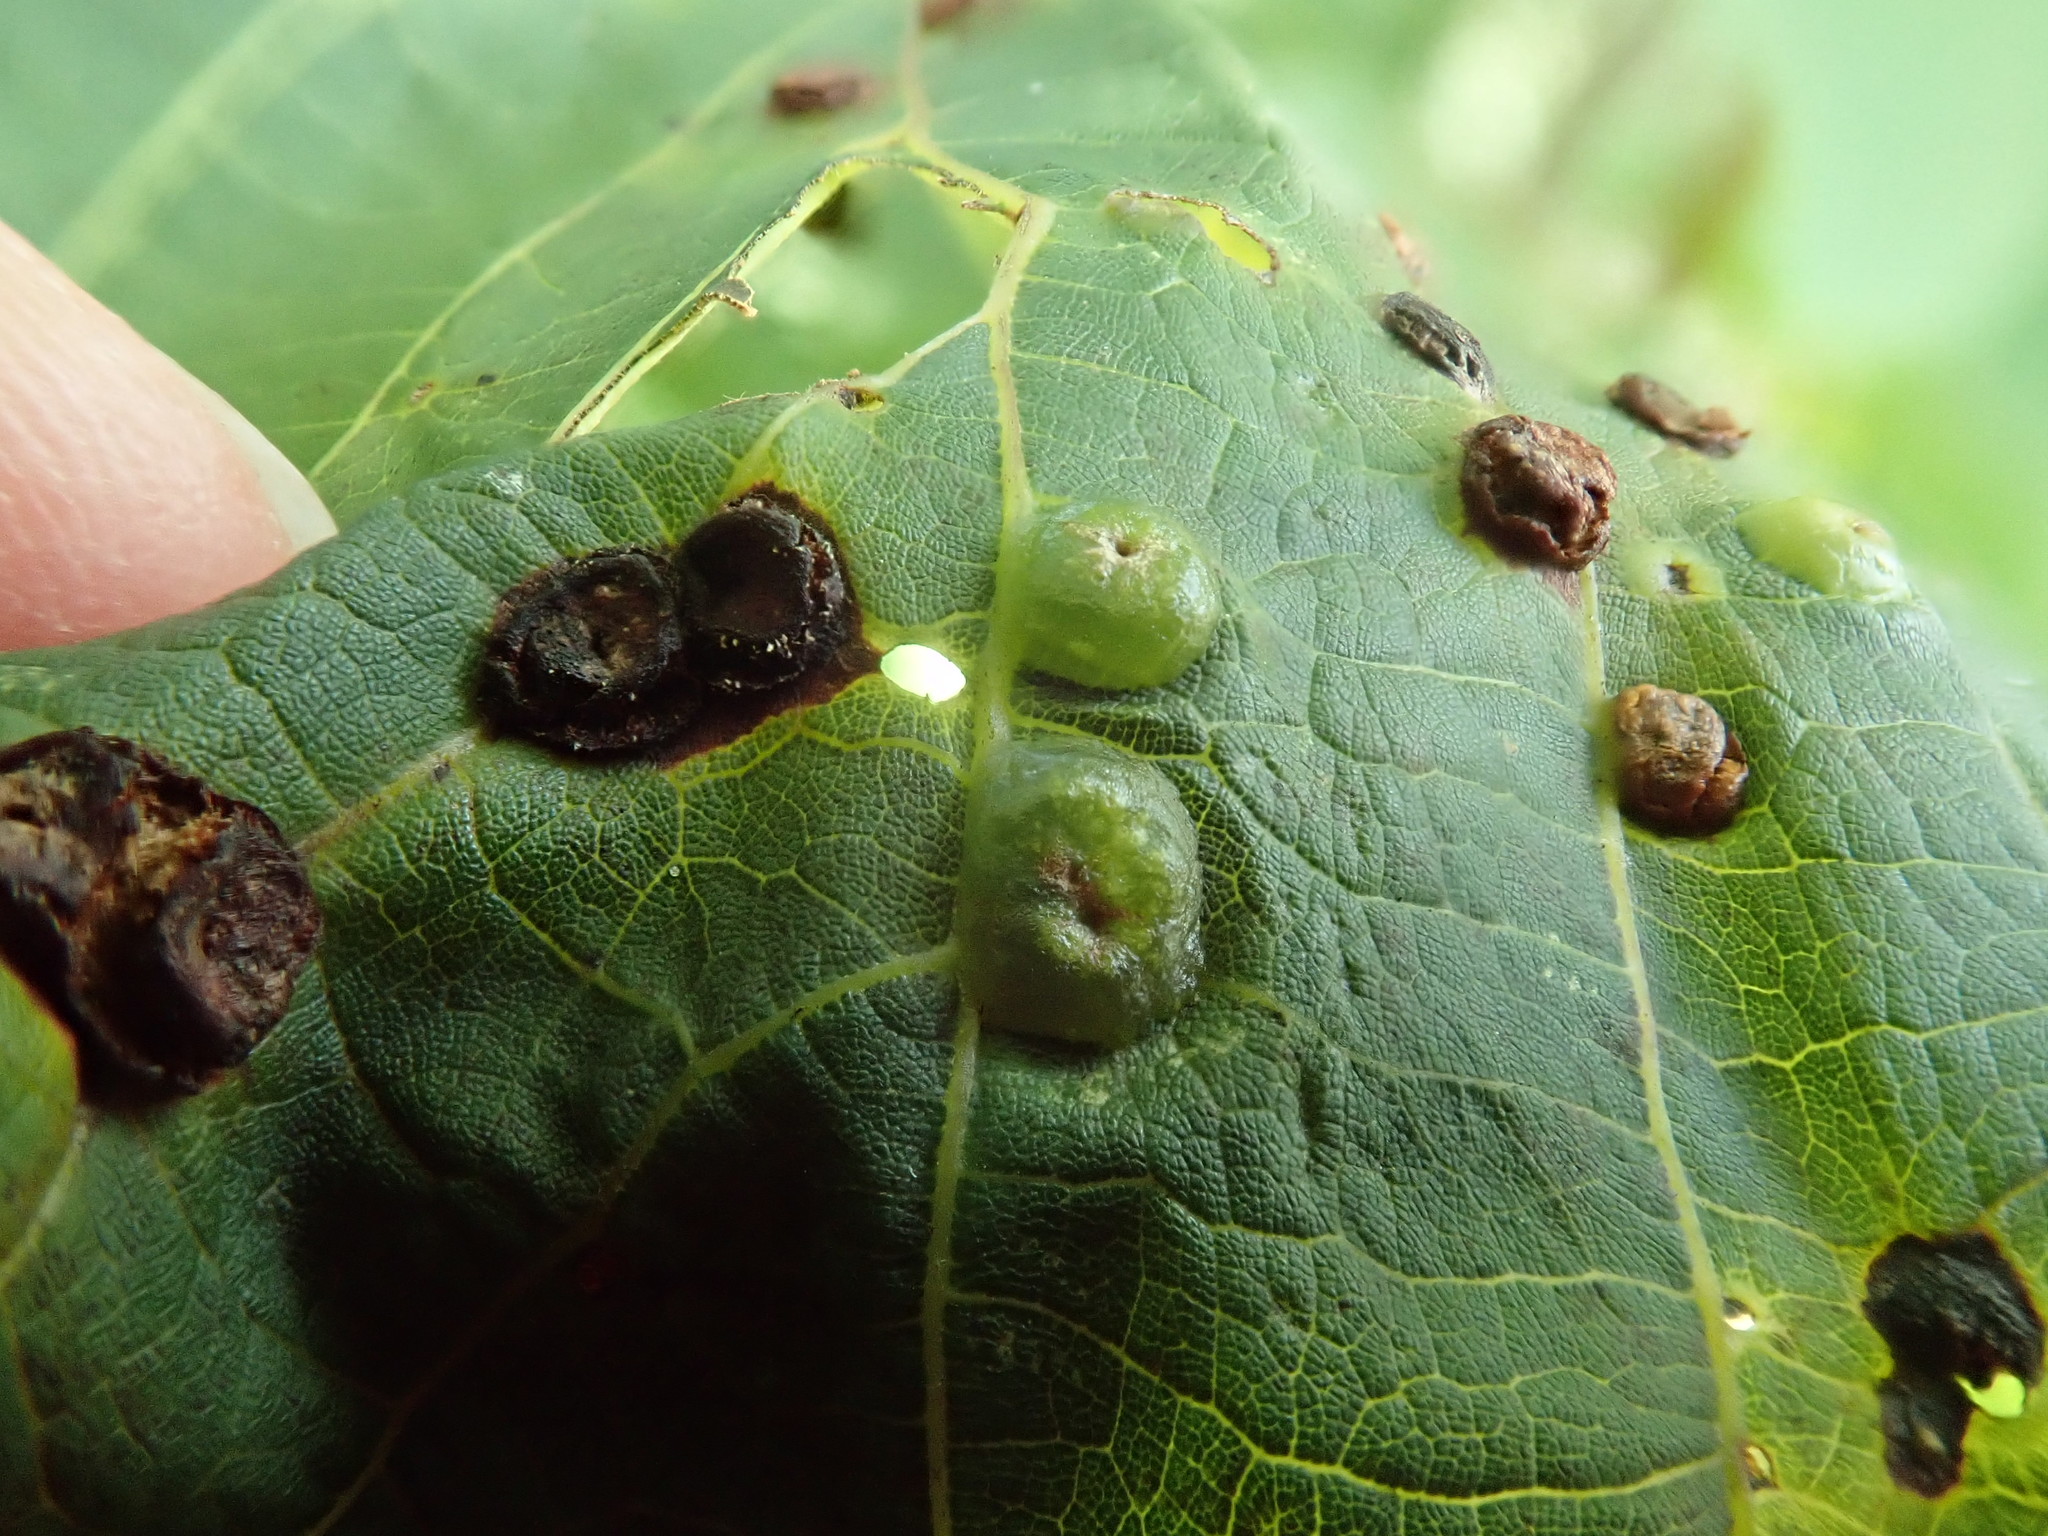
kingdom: Animalia
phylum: Arthropoda
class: Insecta
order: Diptera
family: Cecidomyiidae
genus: Contarinia
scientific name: Contarinia verrucicola
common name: Linden wart gall midge
